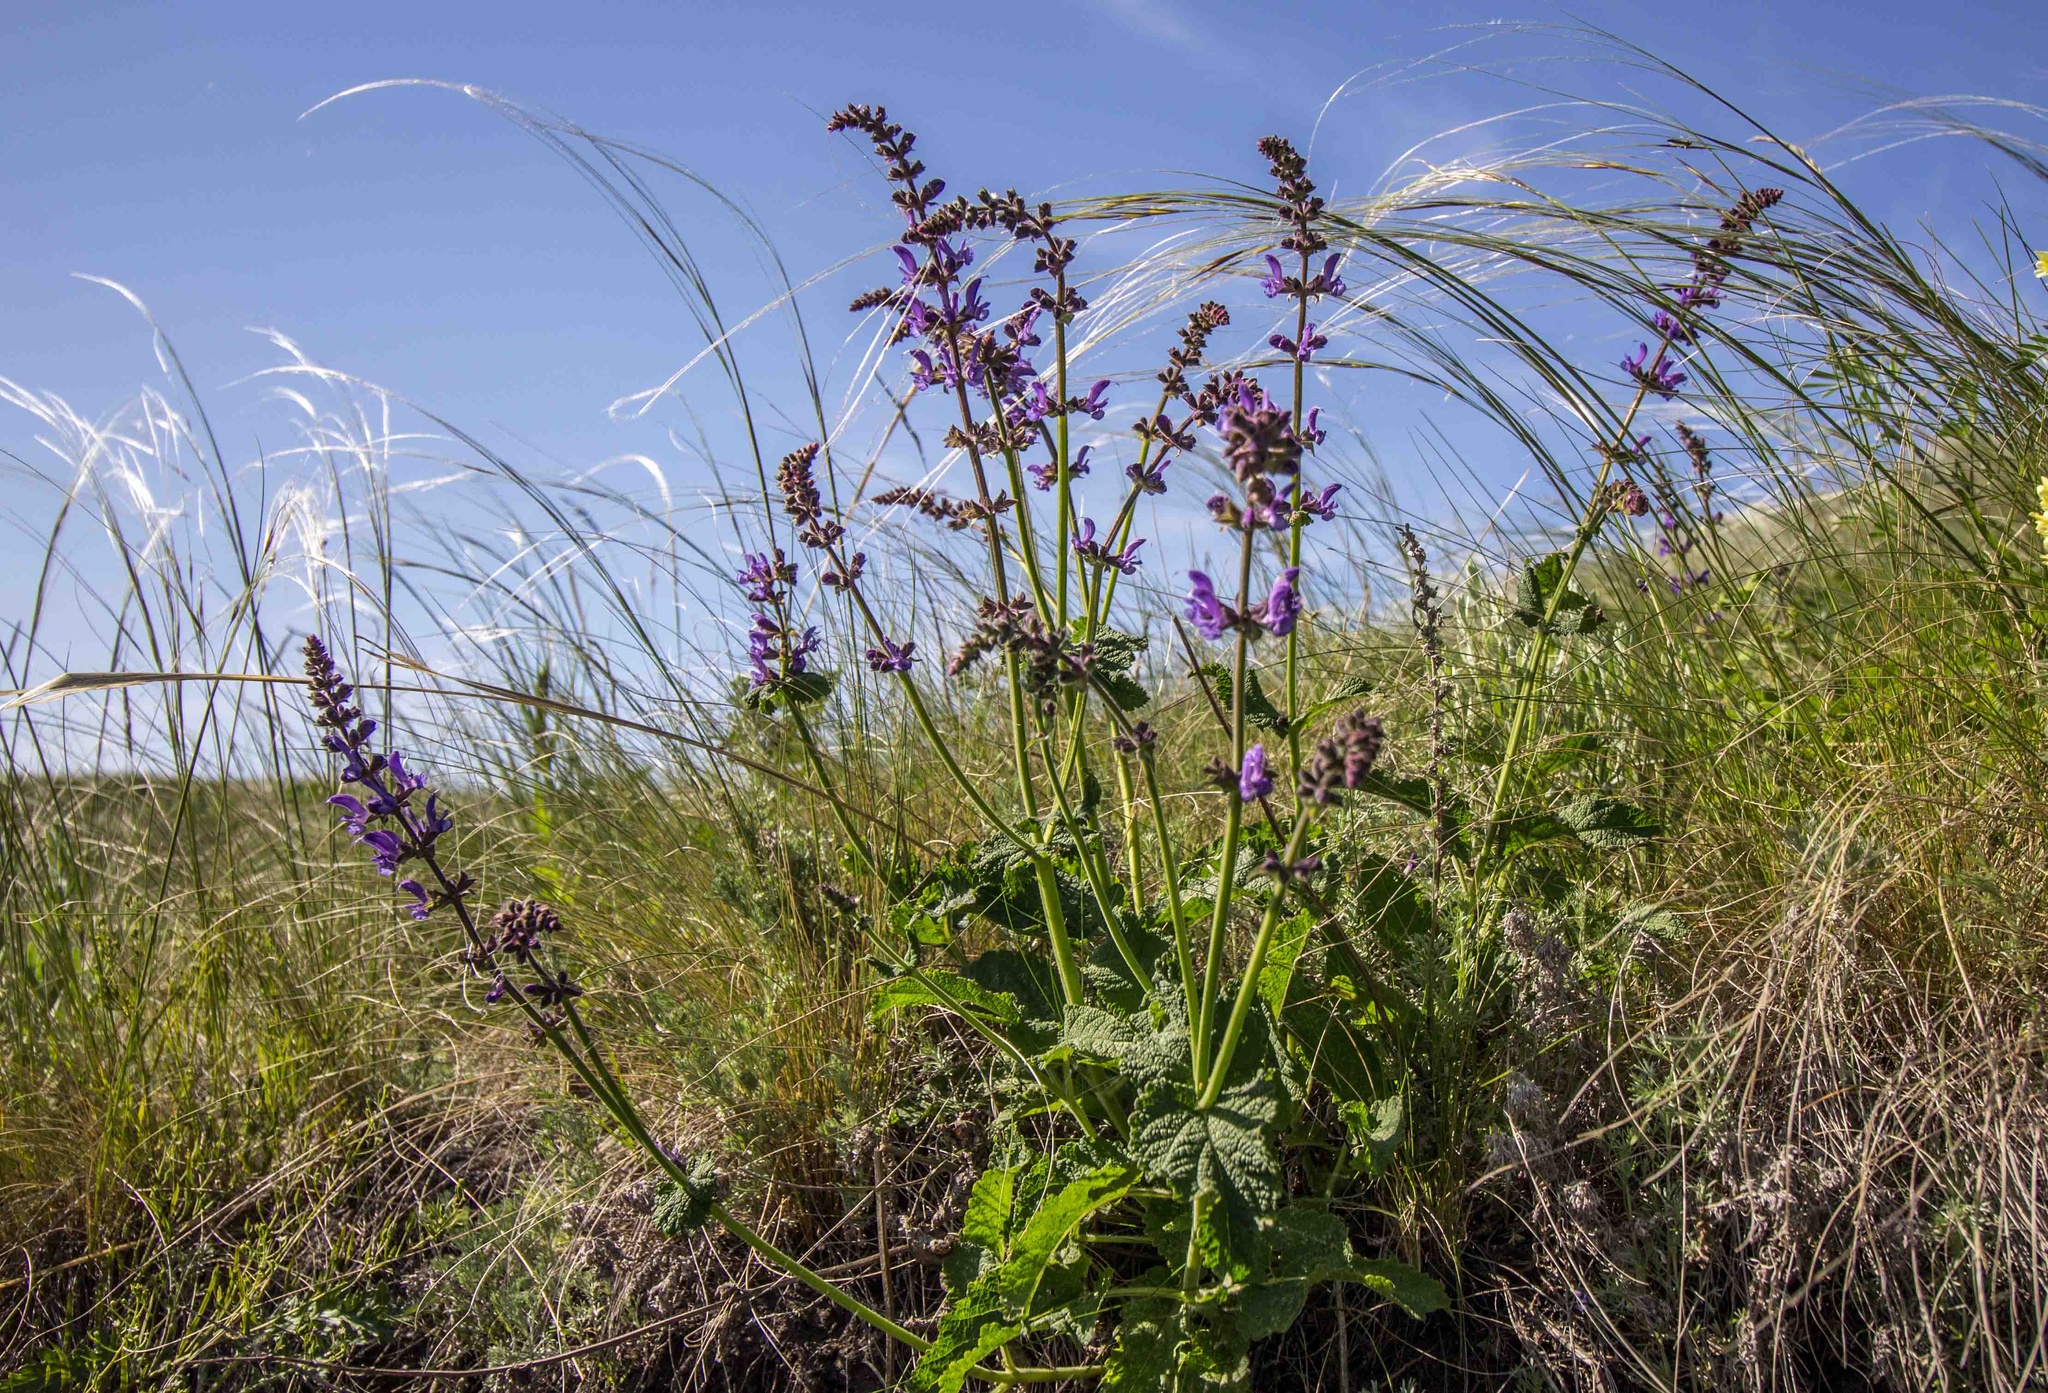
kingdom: Plantae
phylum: Tracheophyta
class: Magnoliopsida
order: Lamiales
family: Lamiaceae
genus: Salvia
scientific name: Salvia dumetorum
